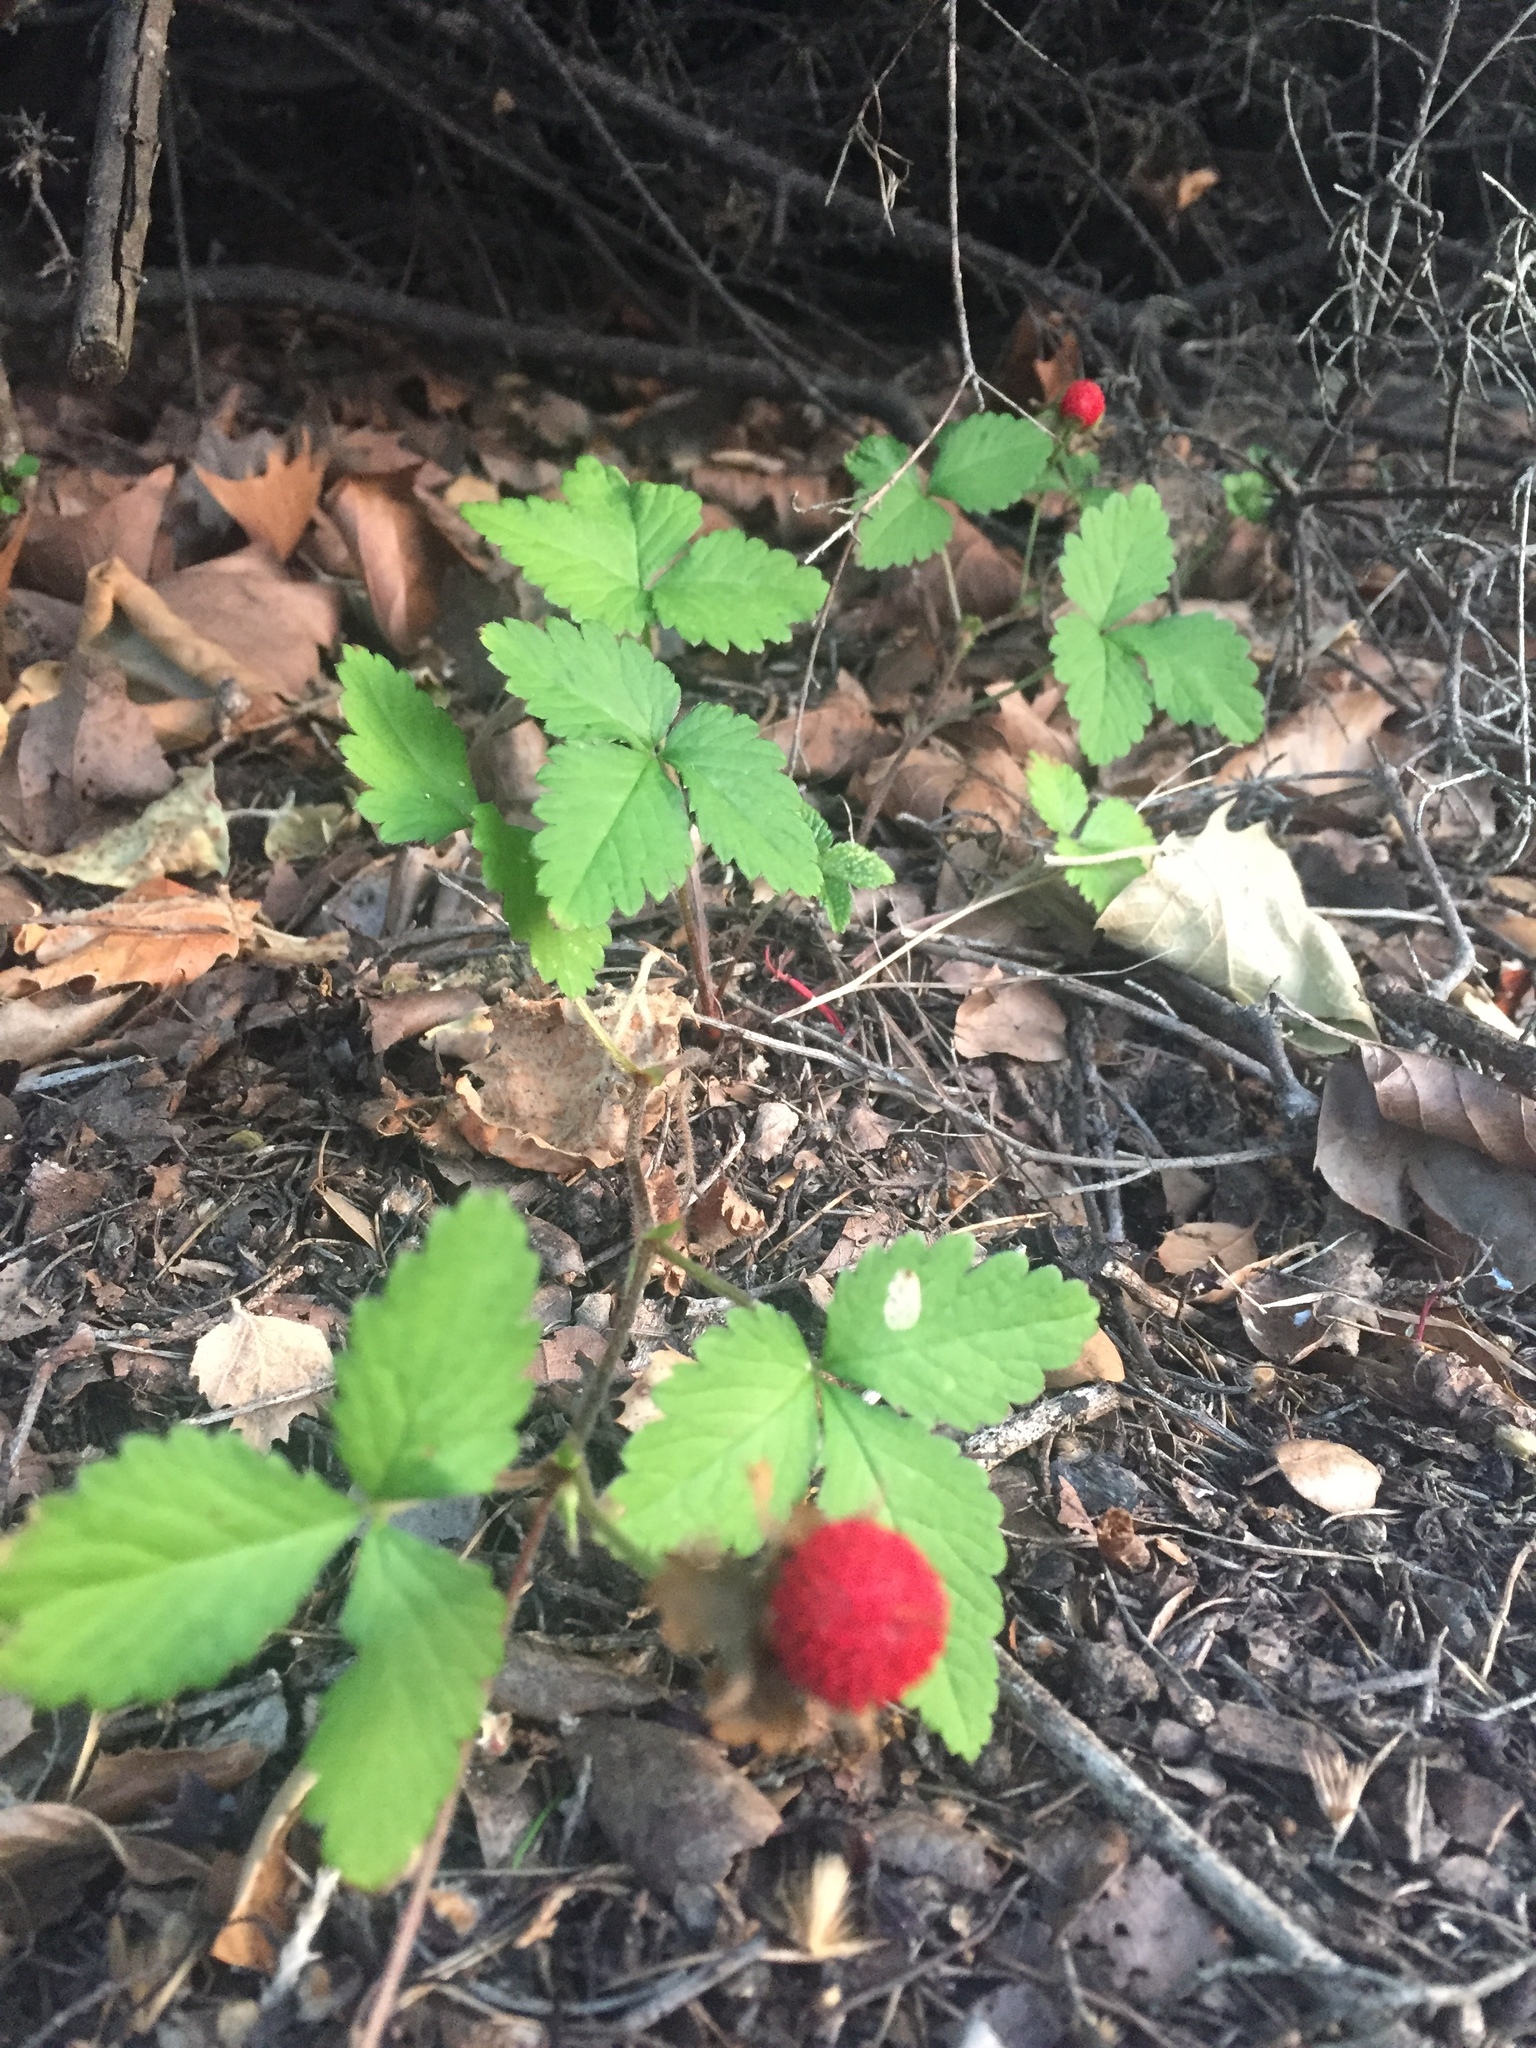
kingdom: Plantae
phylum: Tracheophyta
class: Magnoliopsida
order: Rosales
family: Rosaceae
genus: Potentilla
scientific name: Potentilla indica
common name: Yellow-flowered strawberry
